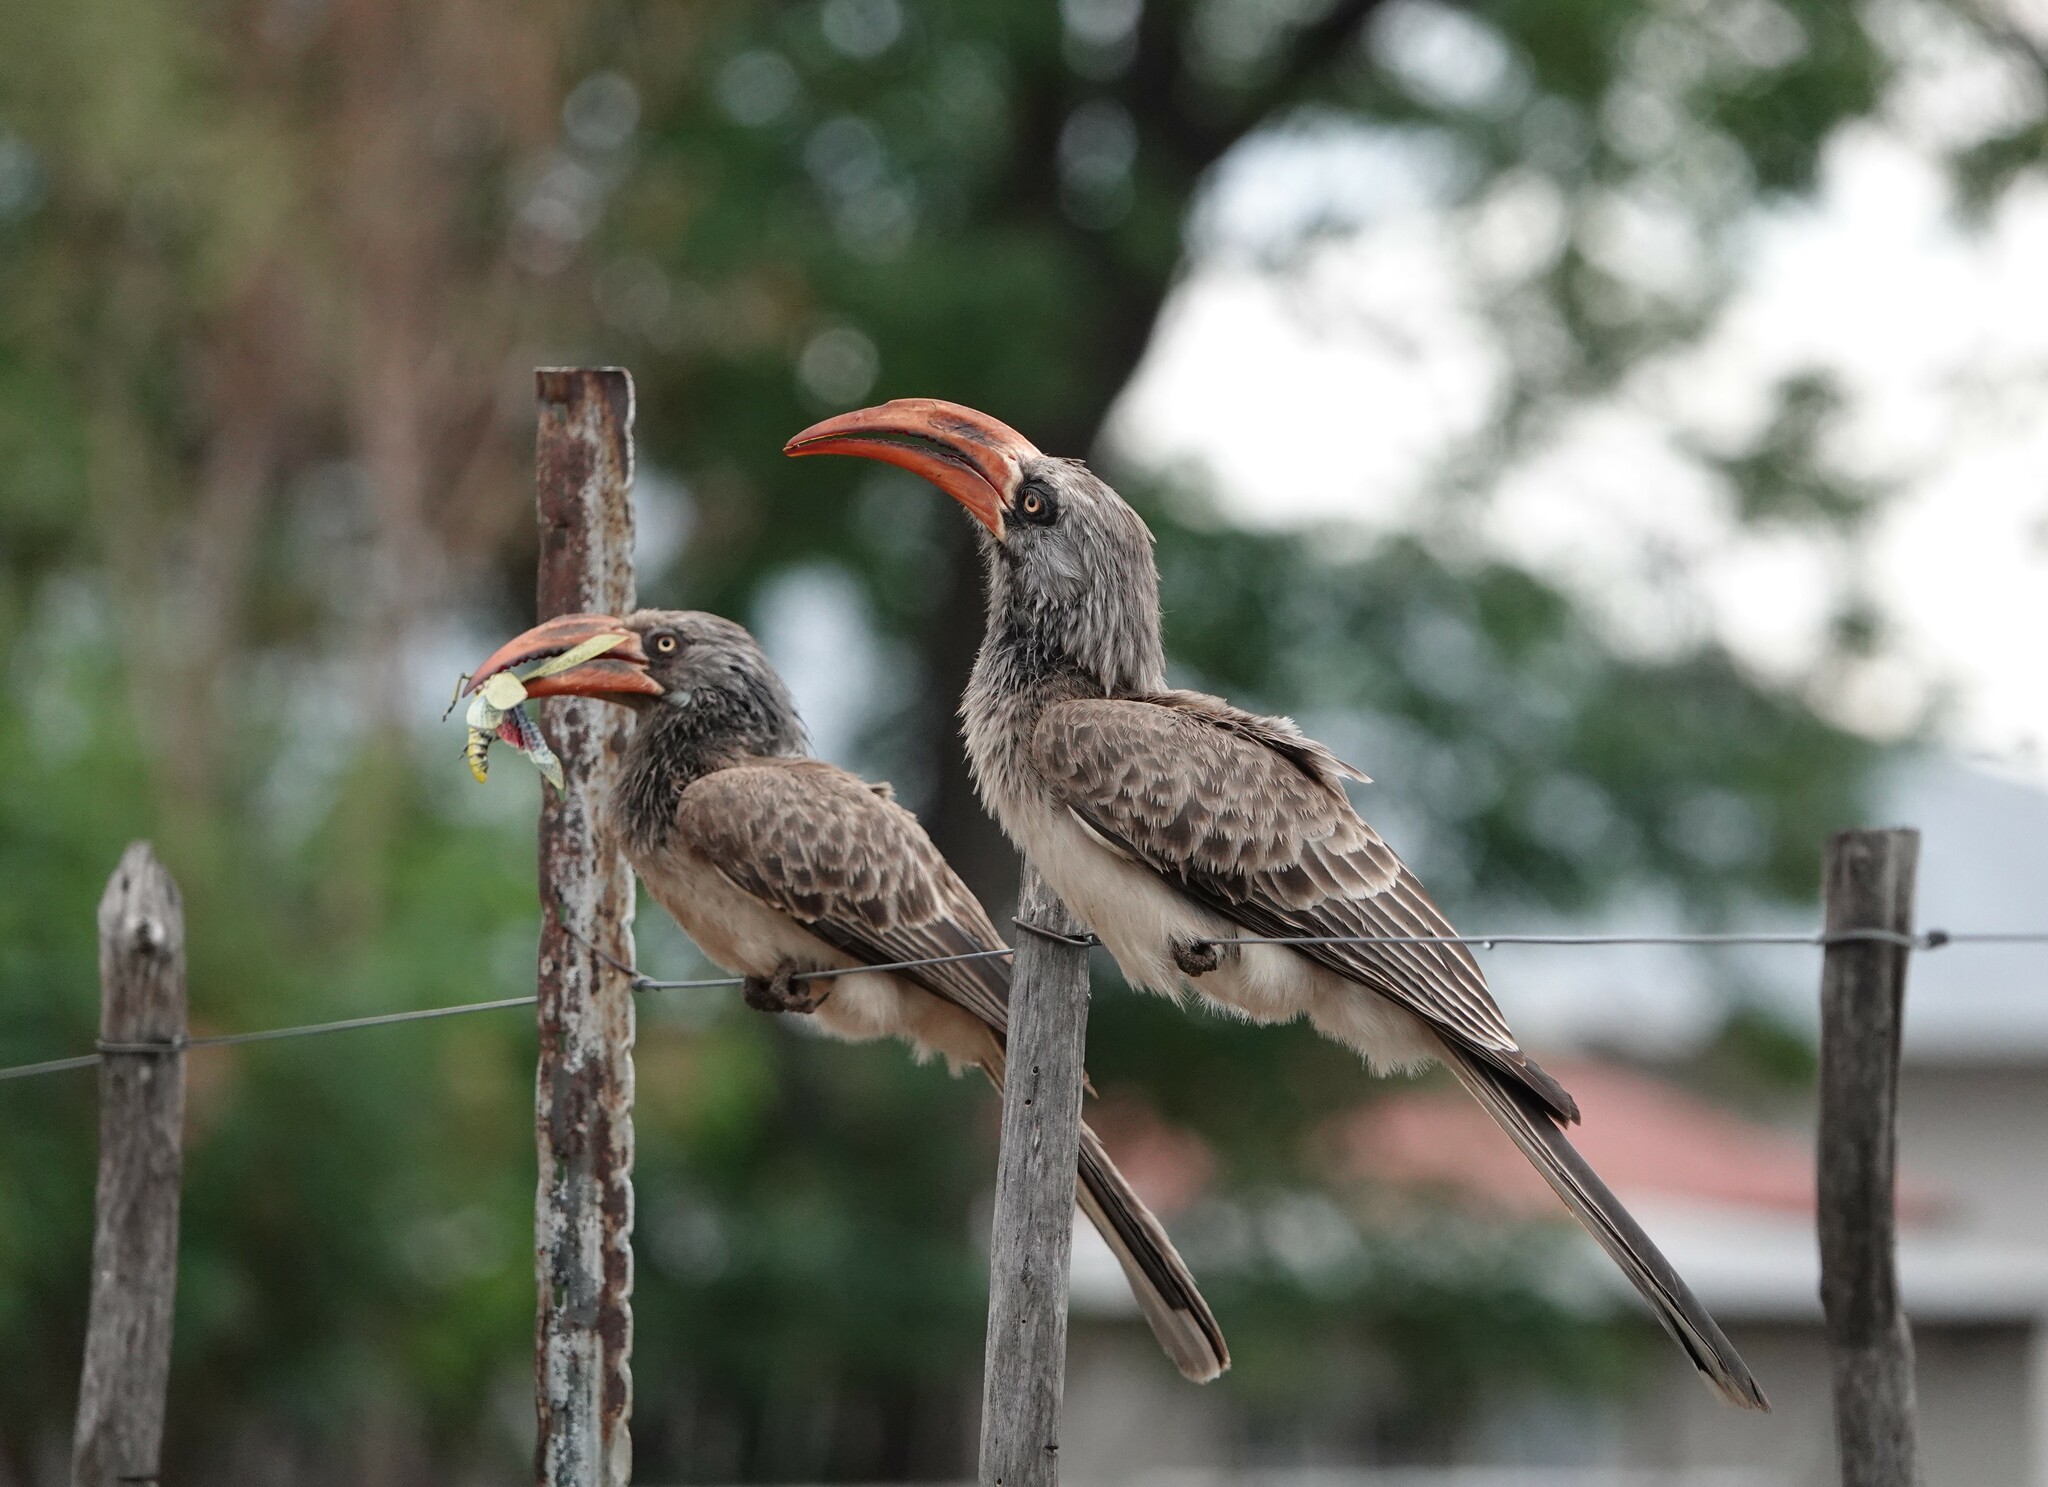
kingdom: Animalia
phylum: Chordata
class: Aves
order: Bucerotiformes
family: Bucerotidae
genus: Lophoceros
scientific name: Lophoceros bradfieldi
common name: Bradfield's hornbill
